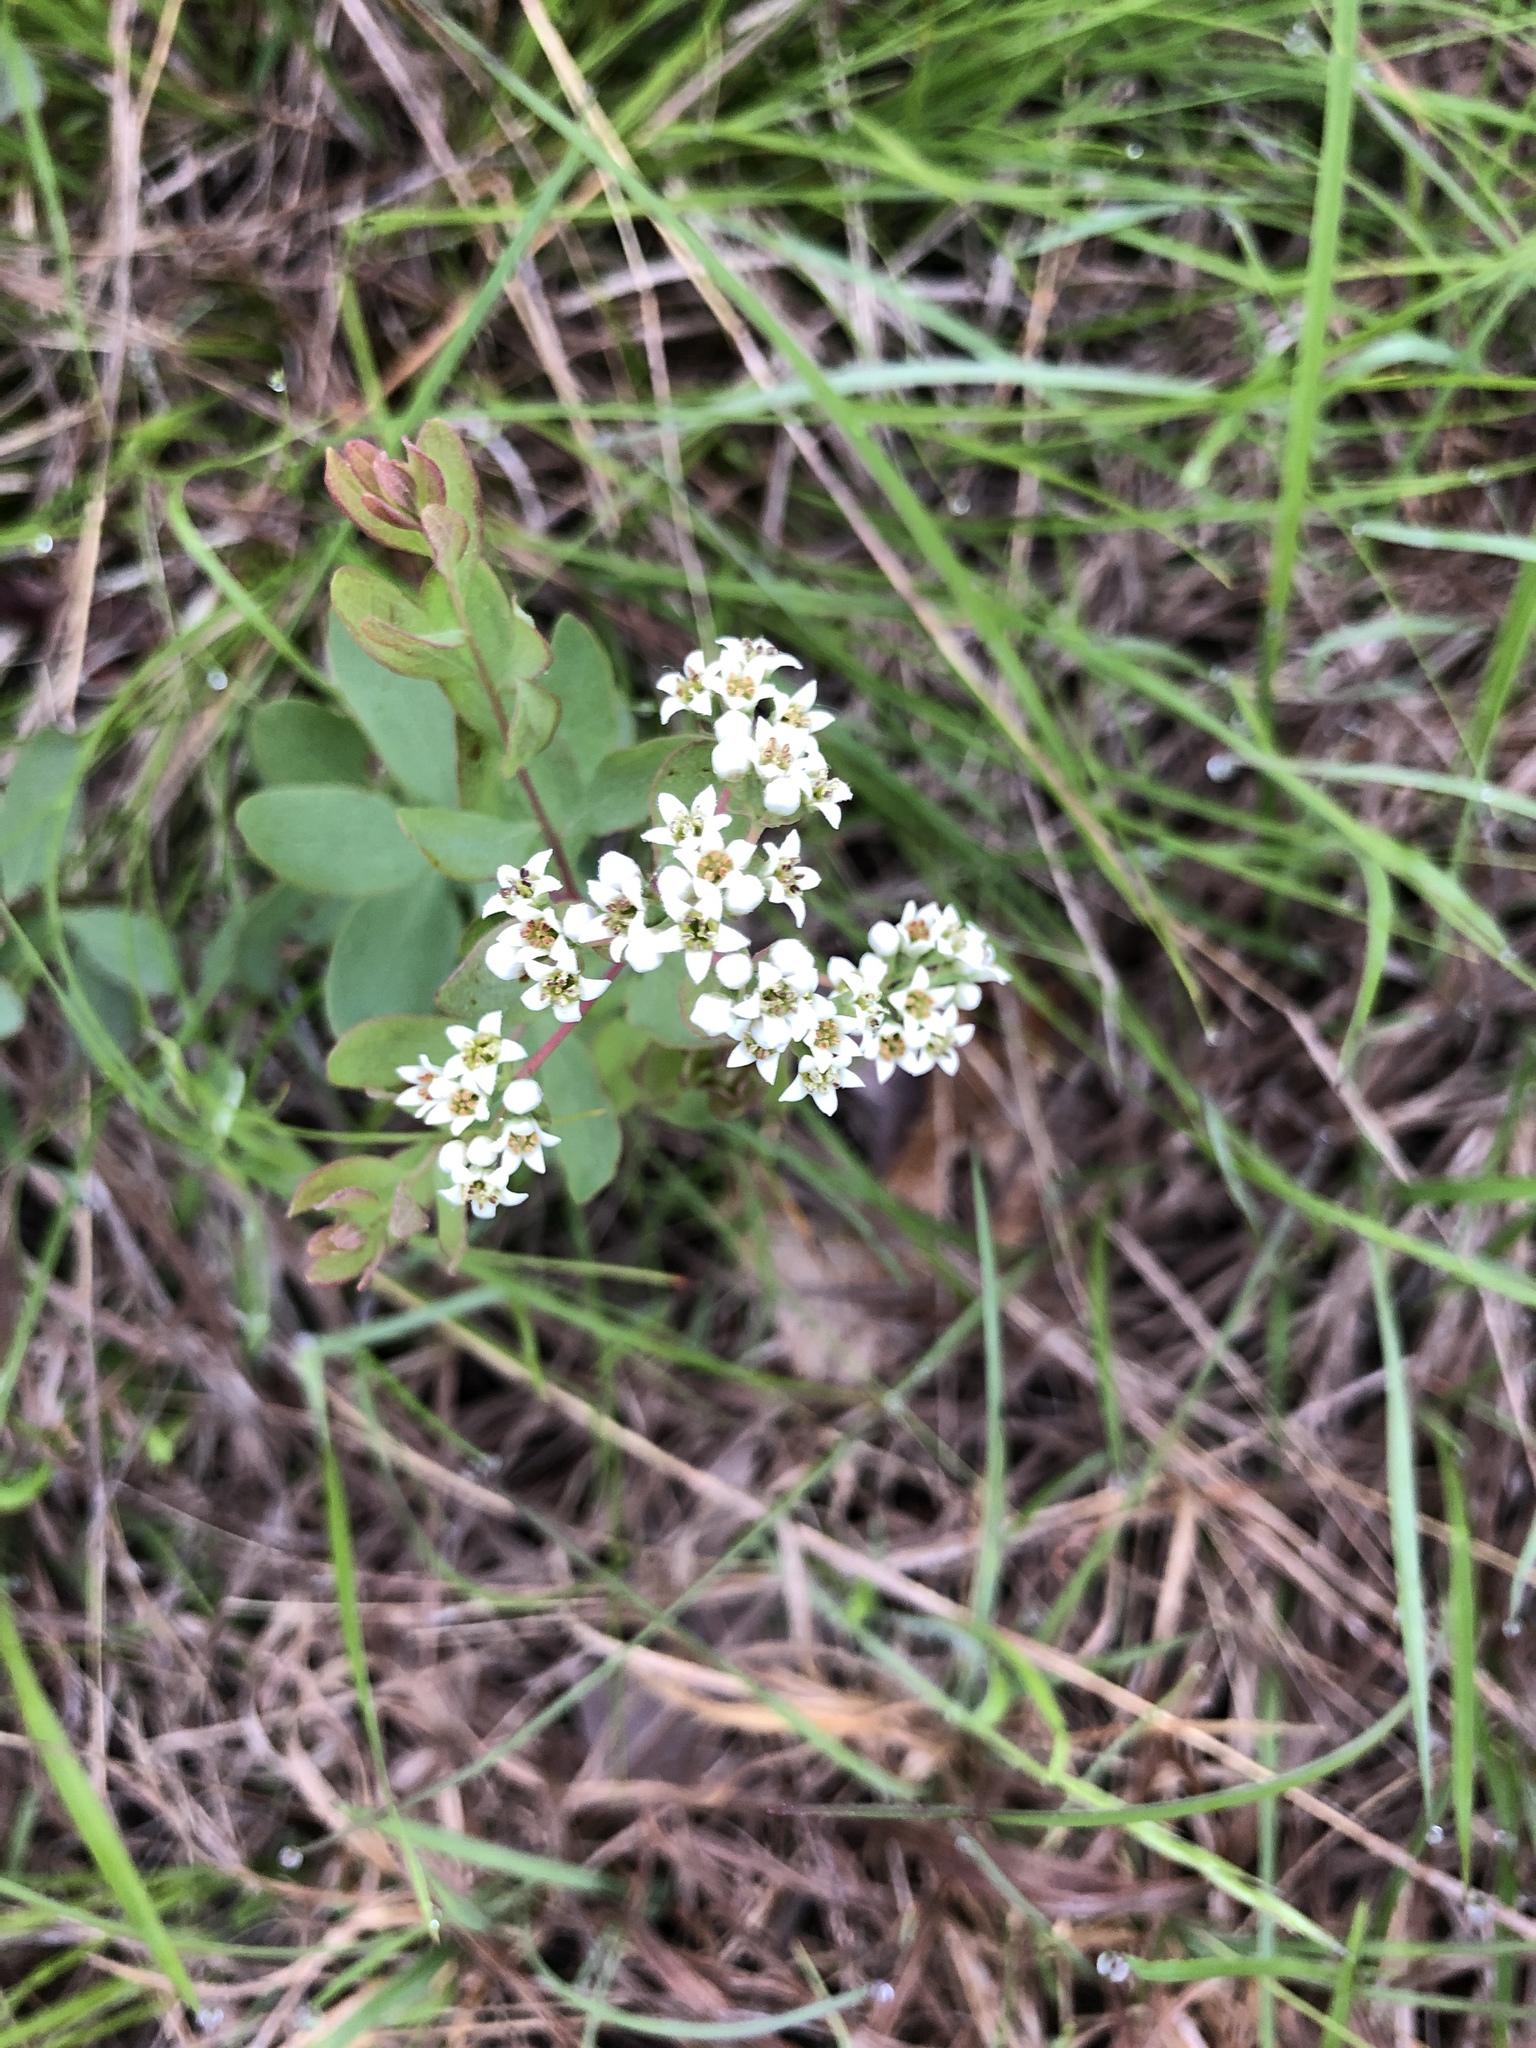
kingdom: Plantae
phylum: Tracheophyta
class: Magnoliopsida
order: Santalales
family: Comandraceae
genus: Comandra
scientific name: Comandra umbellata
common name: Bastard toadflax
